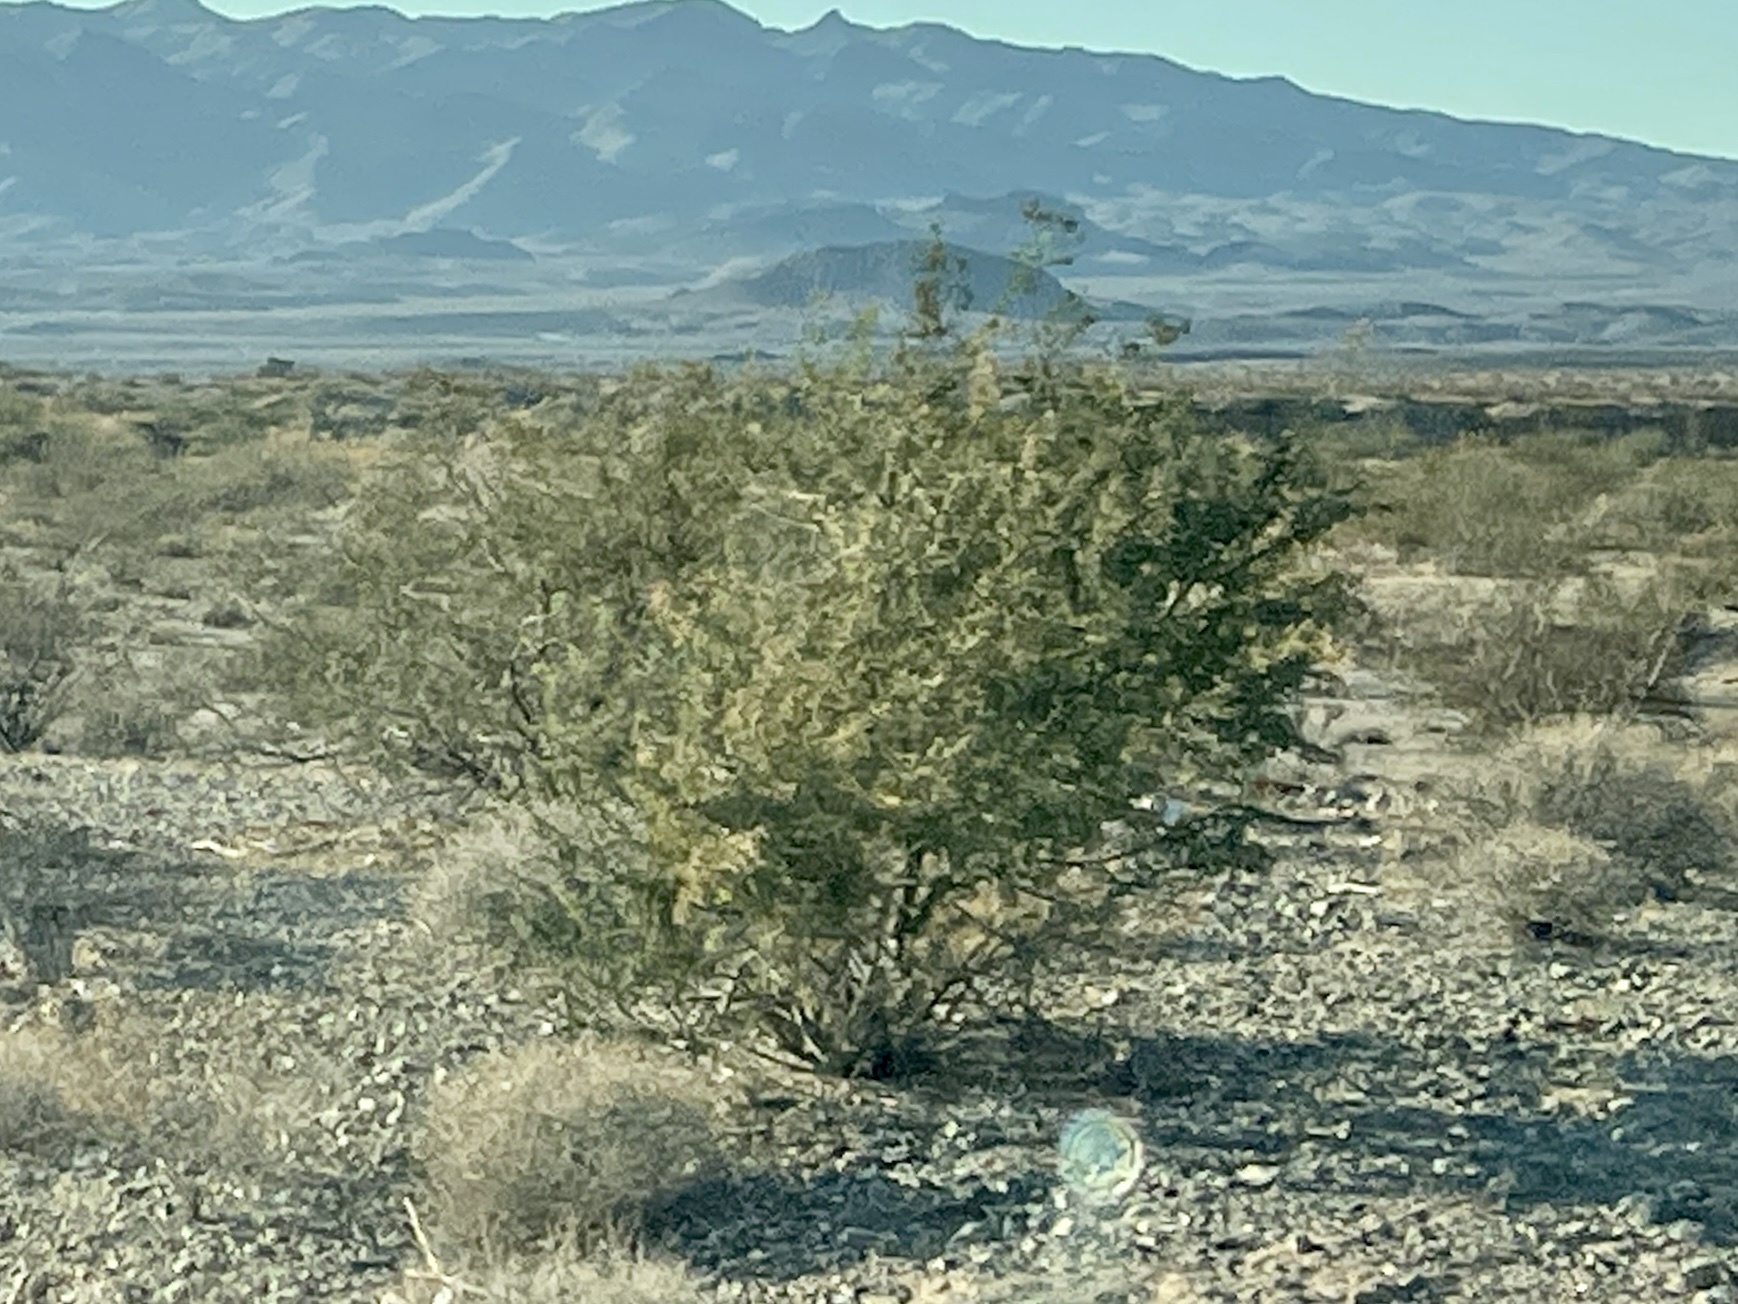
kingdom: Plantae
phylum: Tracheophyta
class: Magnoliopsida
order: Zygophyllales
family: Zygophyllaceae
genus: Larrea
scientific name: Larrea tridentata
